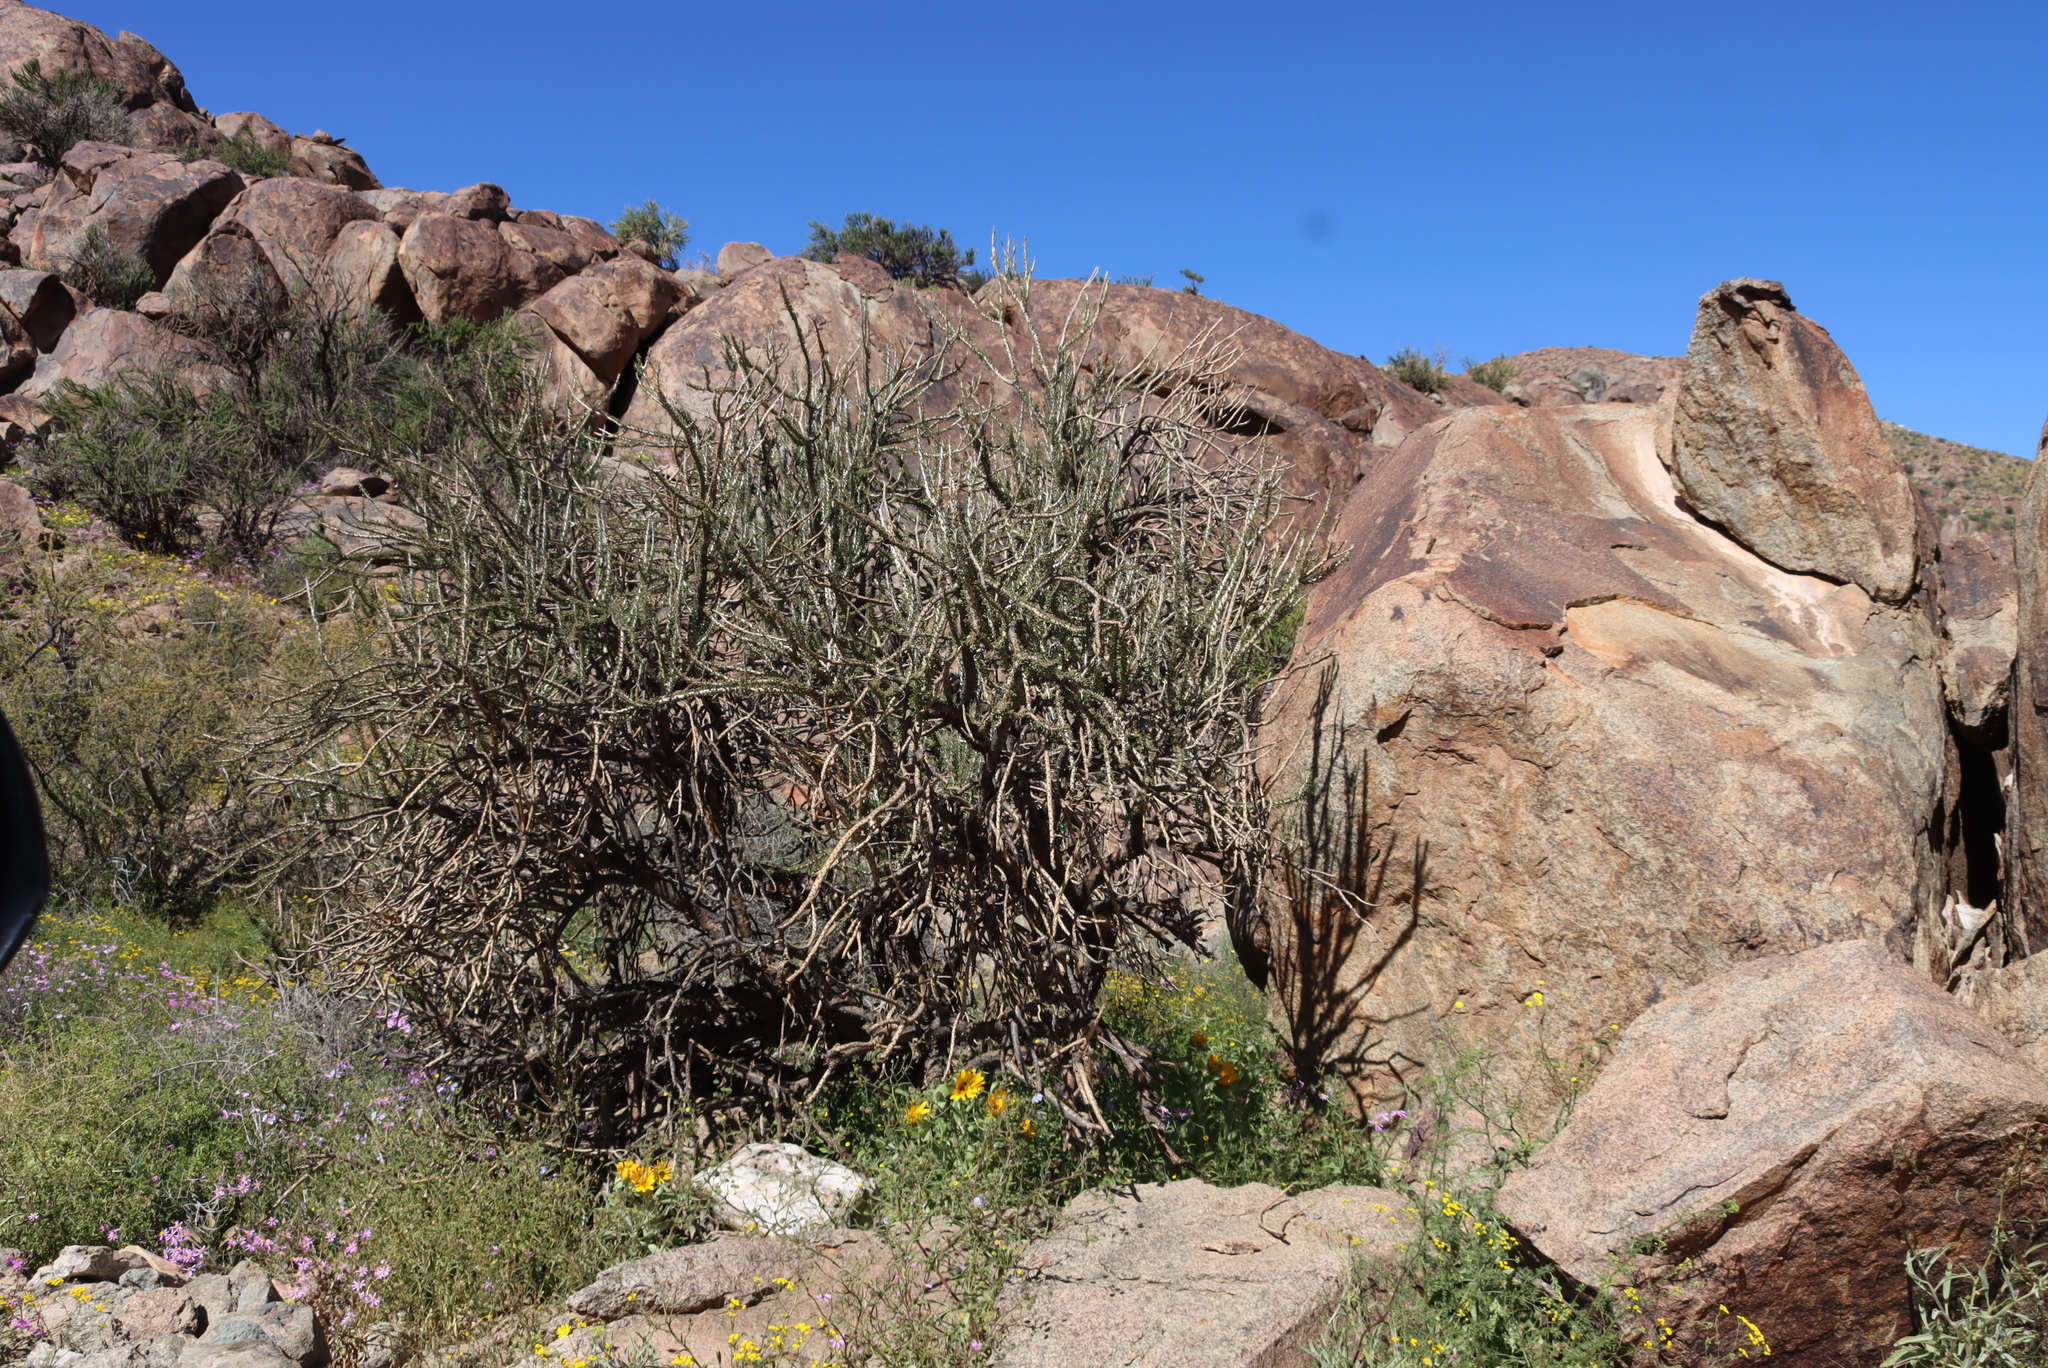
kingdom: Plantae
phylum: Tracheophyta
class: Magnoliopsida
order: Caryophyllales
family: Didiereaceae
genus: Portulacaria
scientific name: Portulacaria namaquensis
